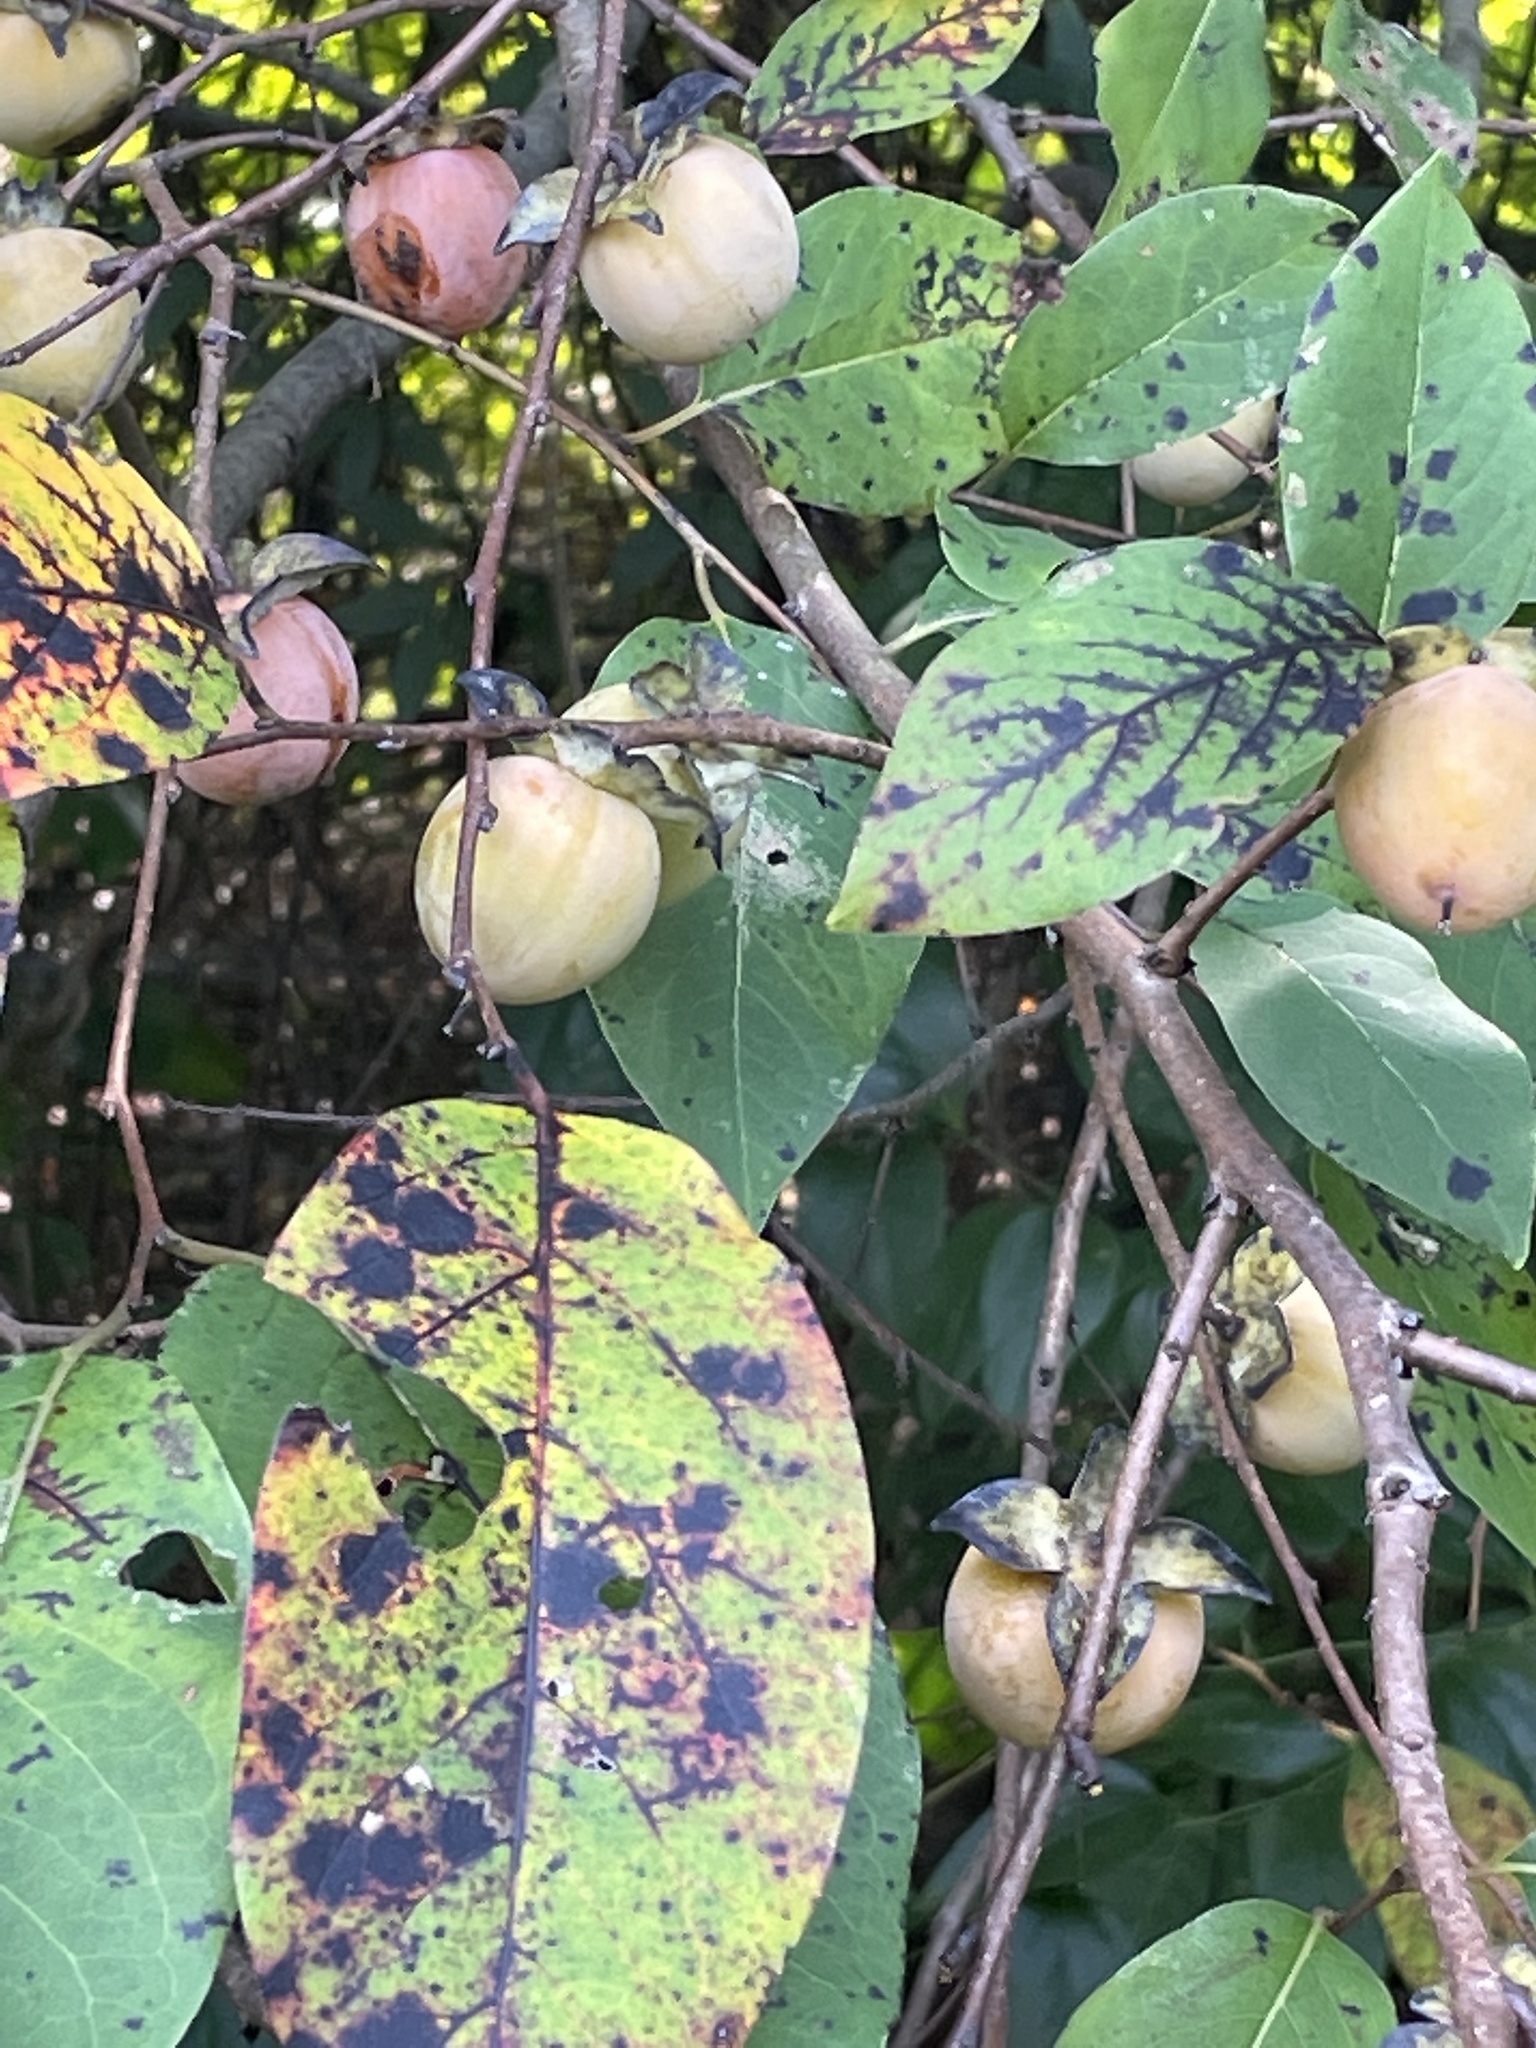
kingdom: Plantae
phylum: Tracheophyta
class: Magnoliopsida
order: Ericales
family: Ebenaceae
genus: Diospyros
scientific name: Diospyros virginiana
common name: Persimmon
